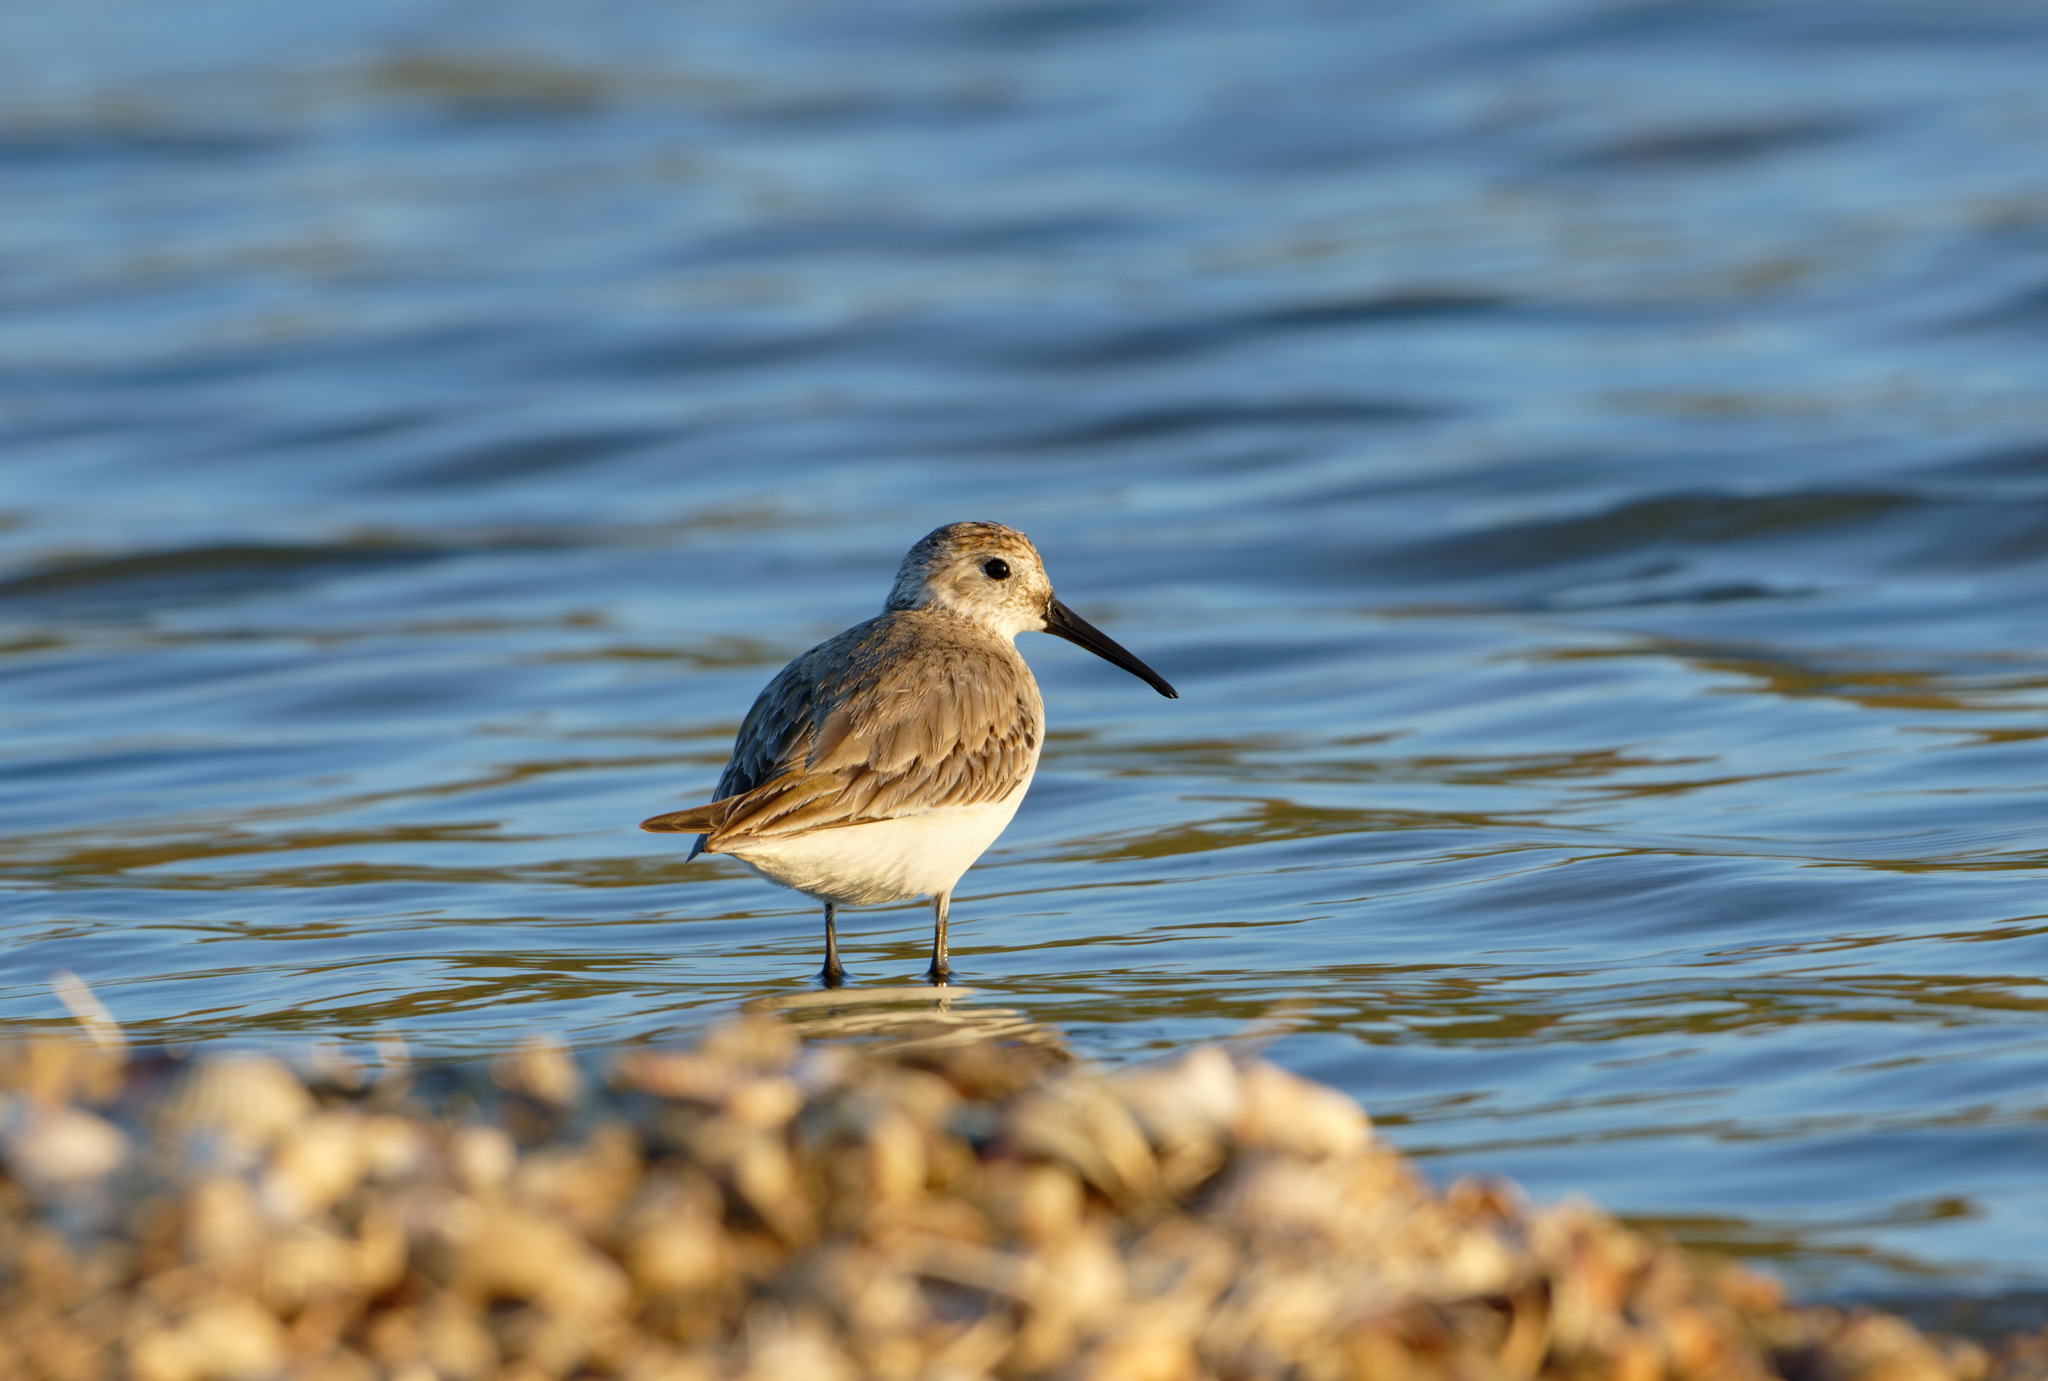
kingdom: Animalia
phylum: Chordata
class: Aves
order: Charadriiformes
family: Scolopacidae
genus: Calidris
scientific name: Calidris alpina
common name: Dunlin
